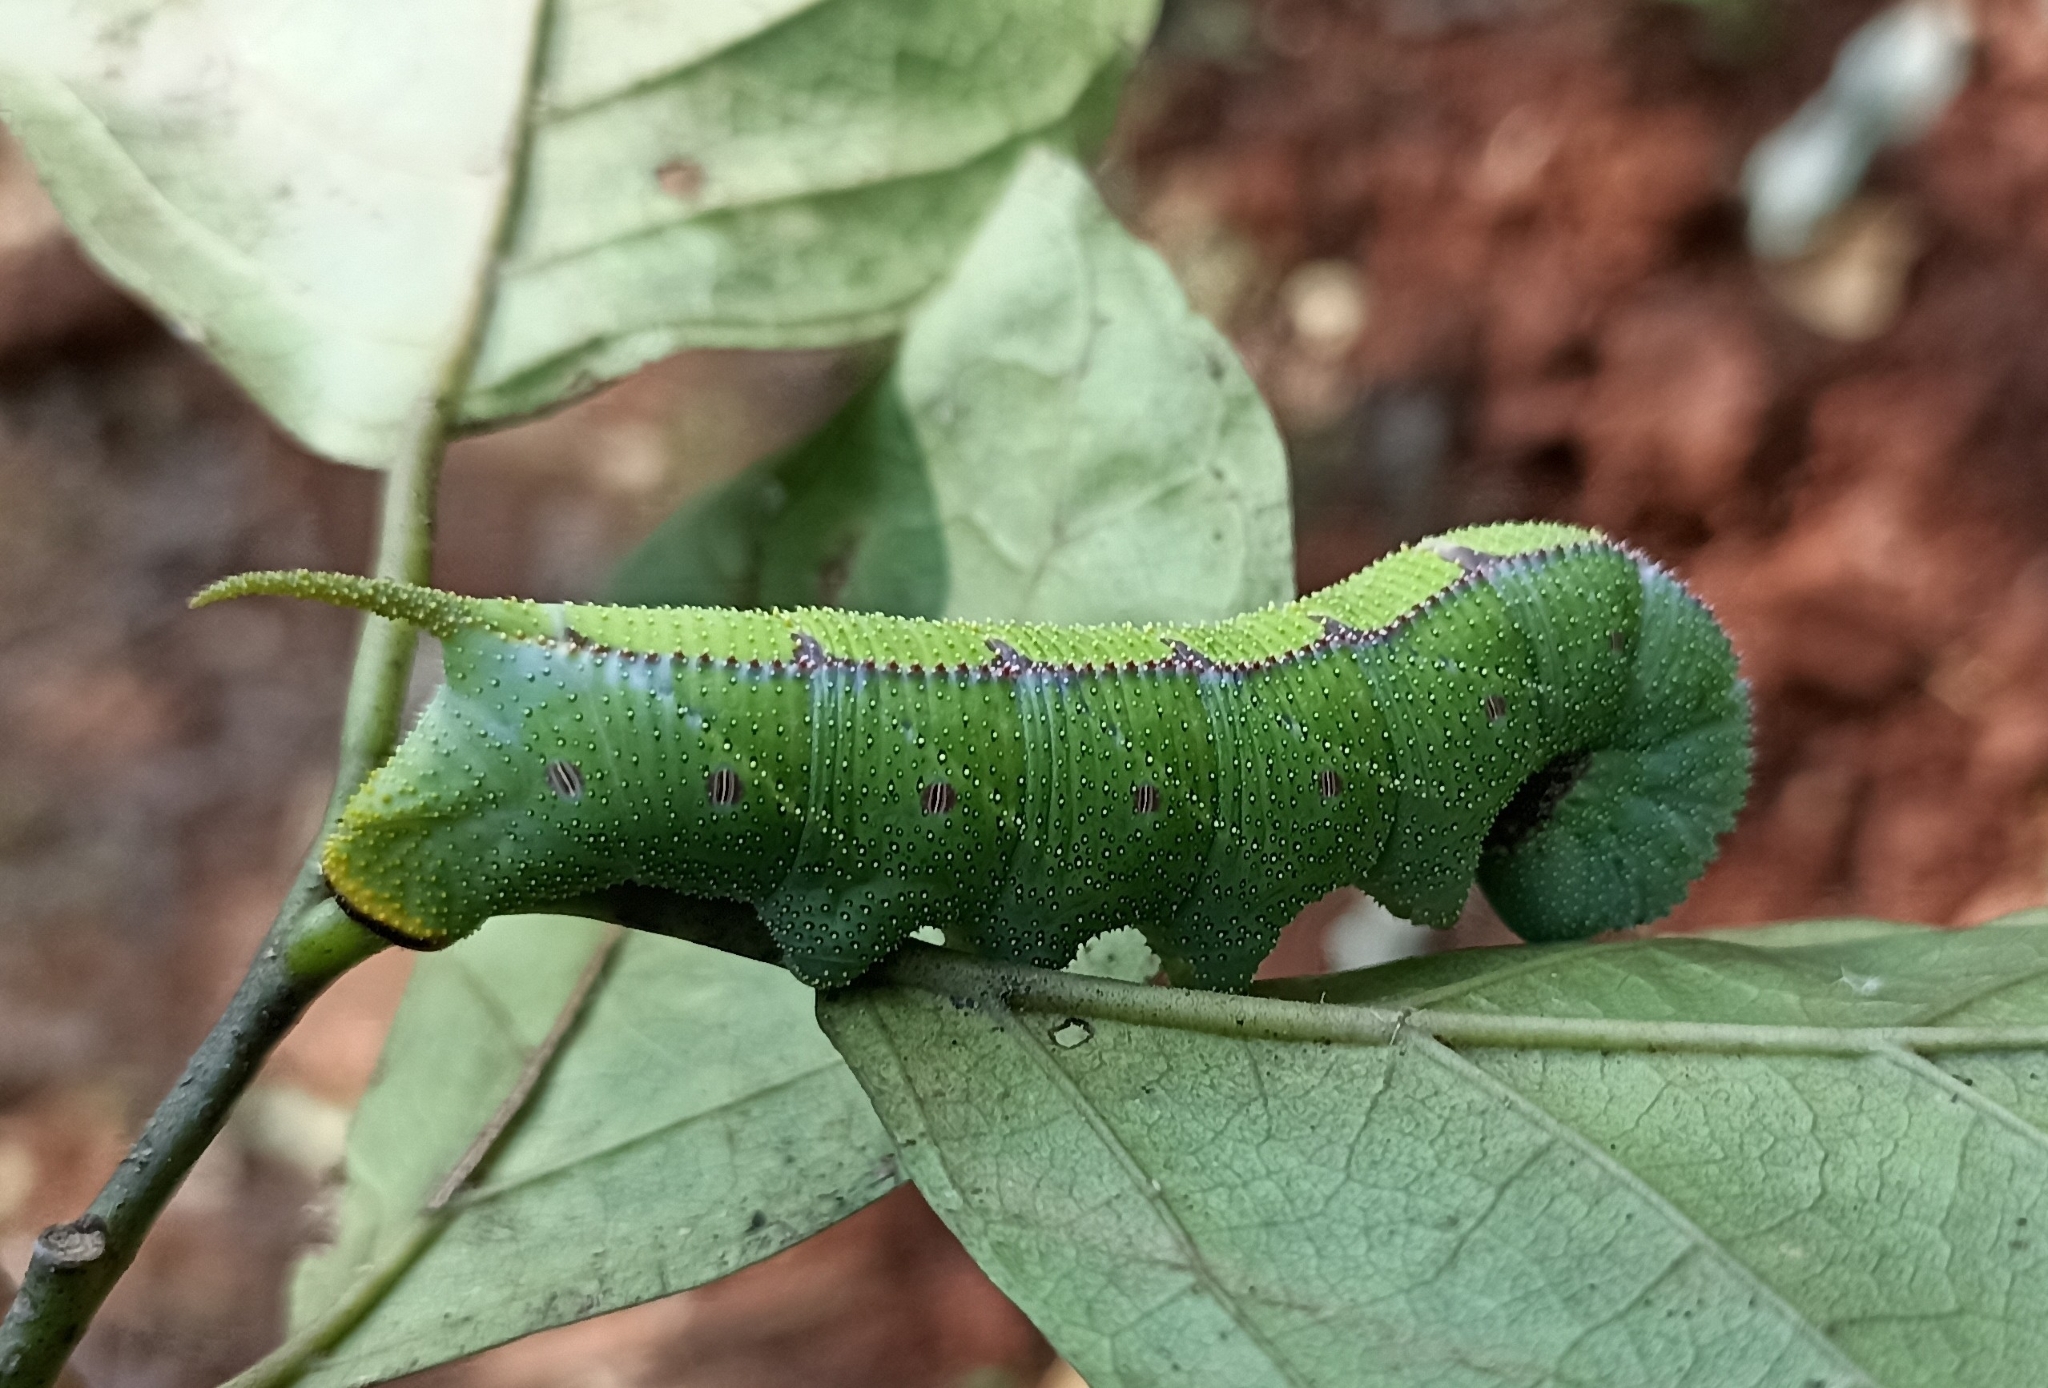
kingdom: Animalia
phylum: Arthropoda
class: Insecta
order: Lepidoptera
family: Sphingidae
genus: Polyptychus
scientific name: Polyptychus dentatus
